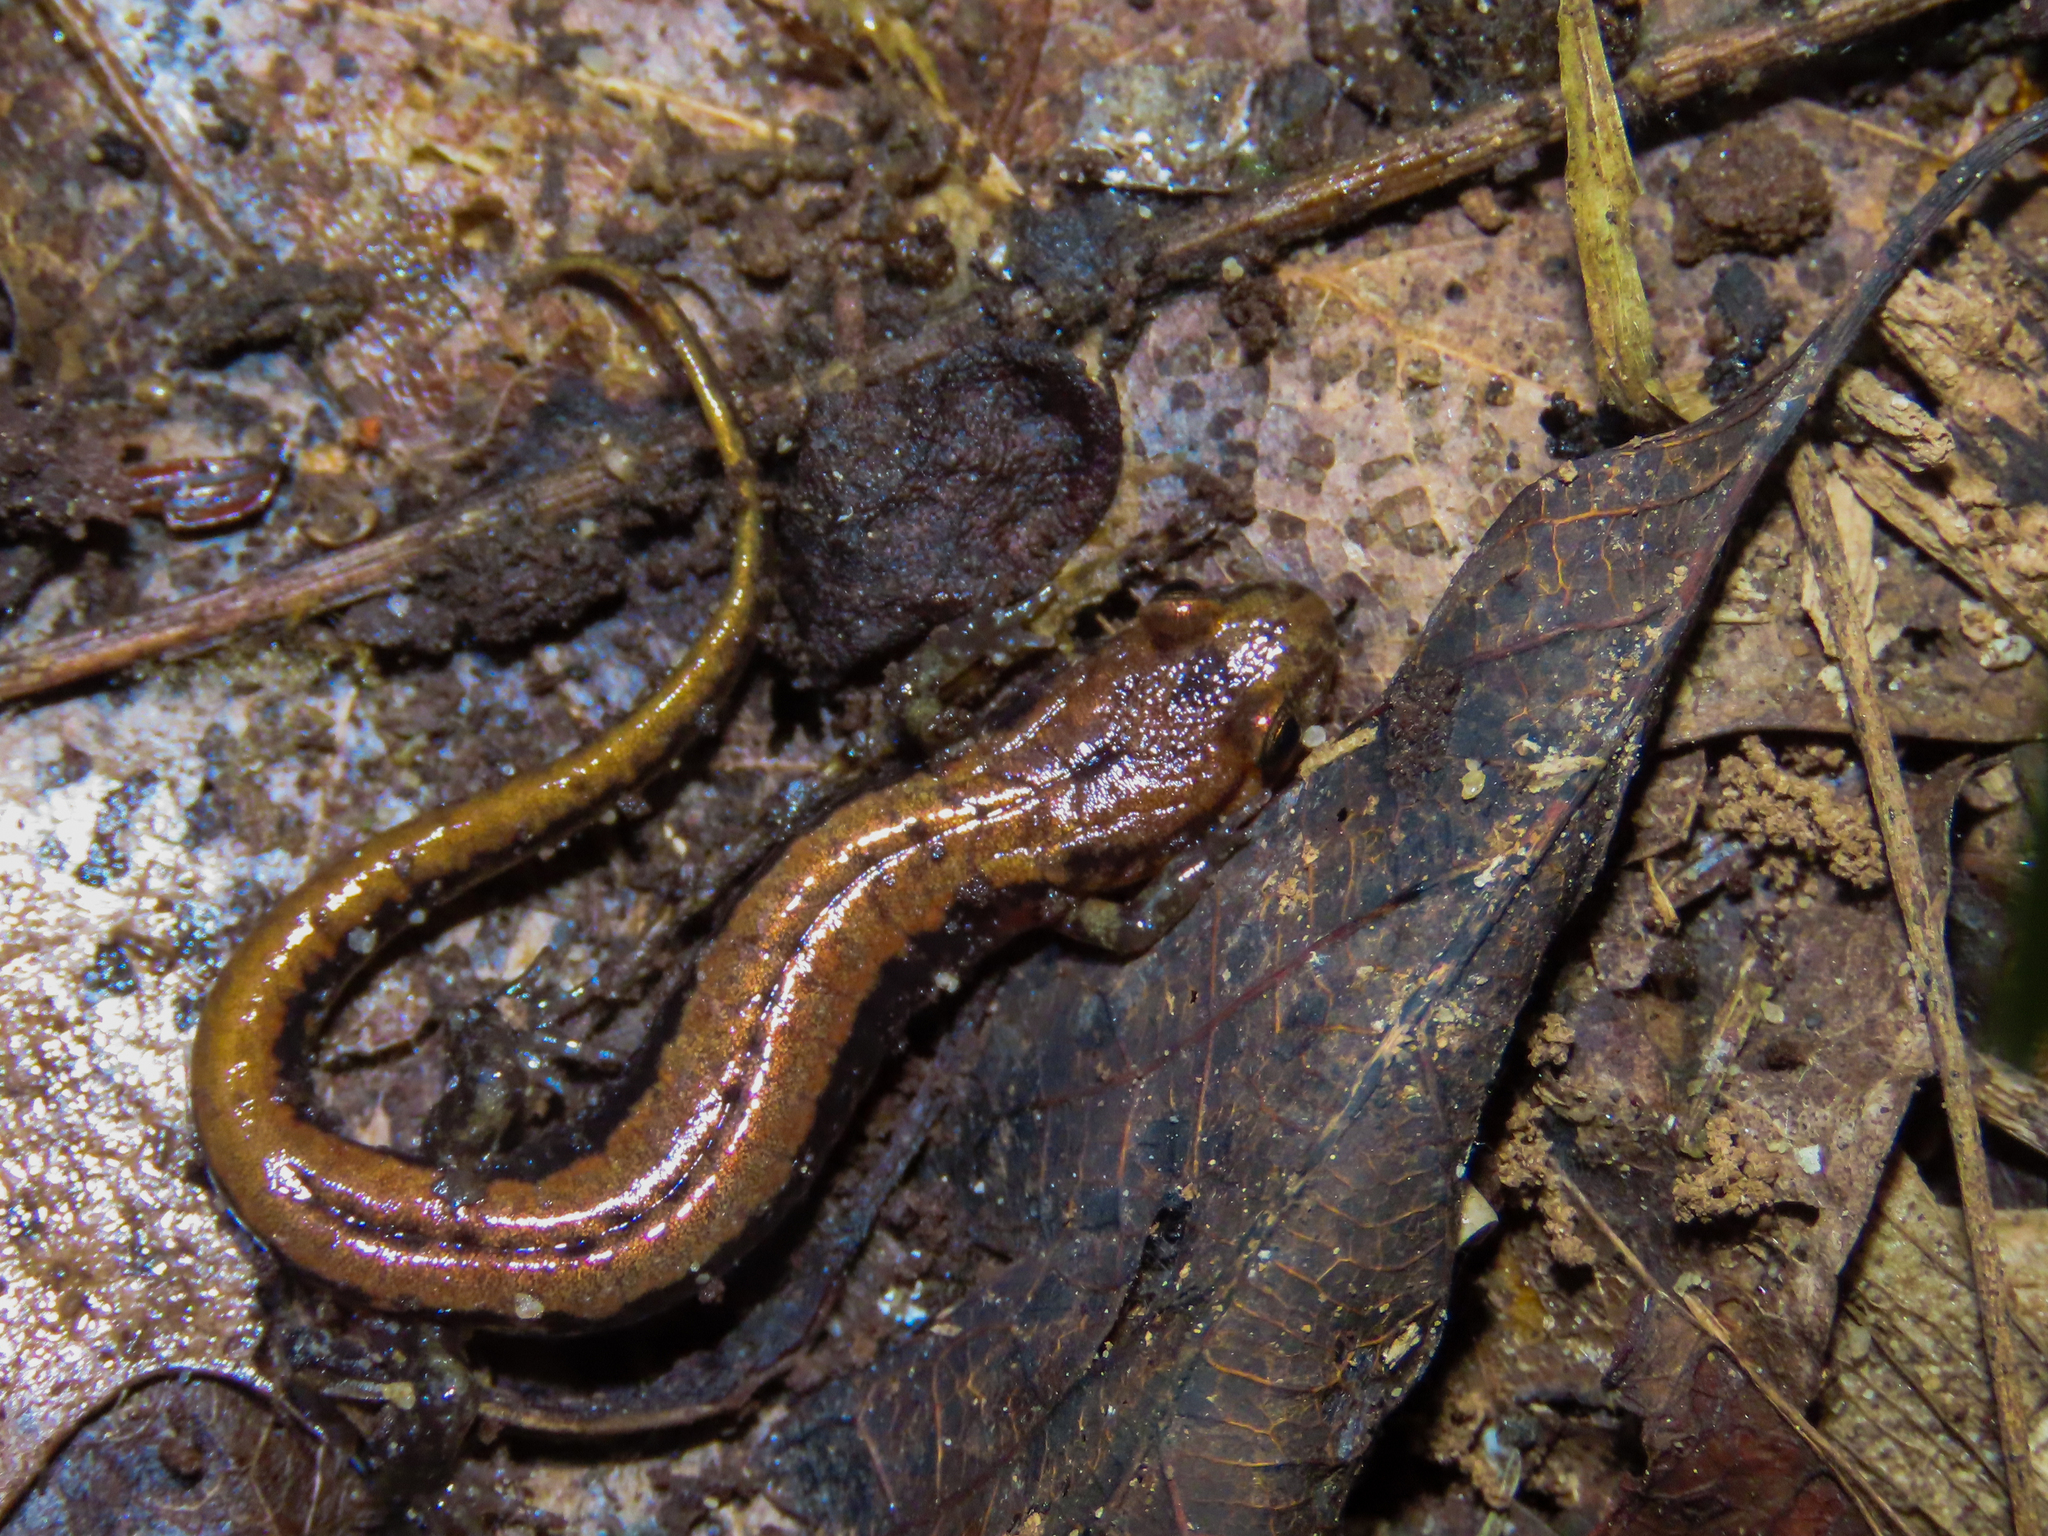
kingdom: Animalia
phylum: Chordata
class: Amphibia
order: Caudata
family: Plethodontidae
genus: Desmognathus
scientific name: Desmognathus ochrophaeus
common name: Allegheny mountain dusky salamander
